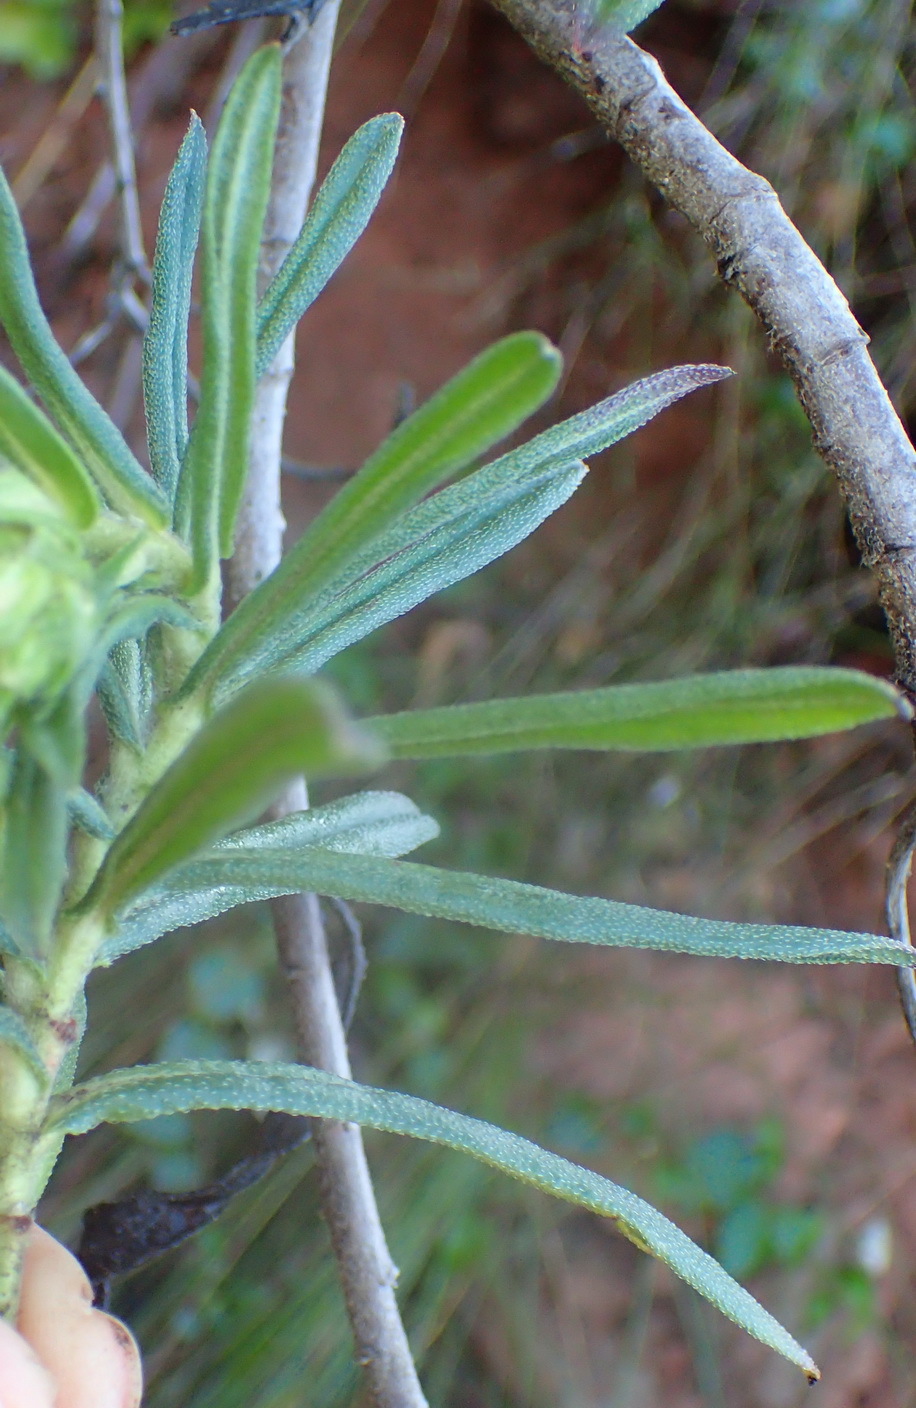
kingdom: Plantae
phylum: Tracheophyta
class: Magnoliopsida
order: Boraginales
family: Boraginaceae
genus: Lobostemon
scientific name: Lobostemon belliformis
